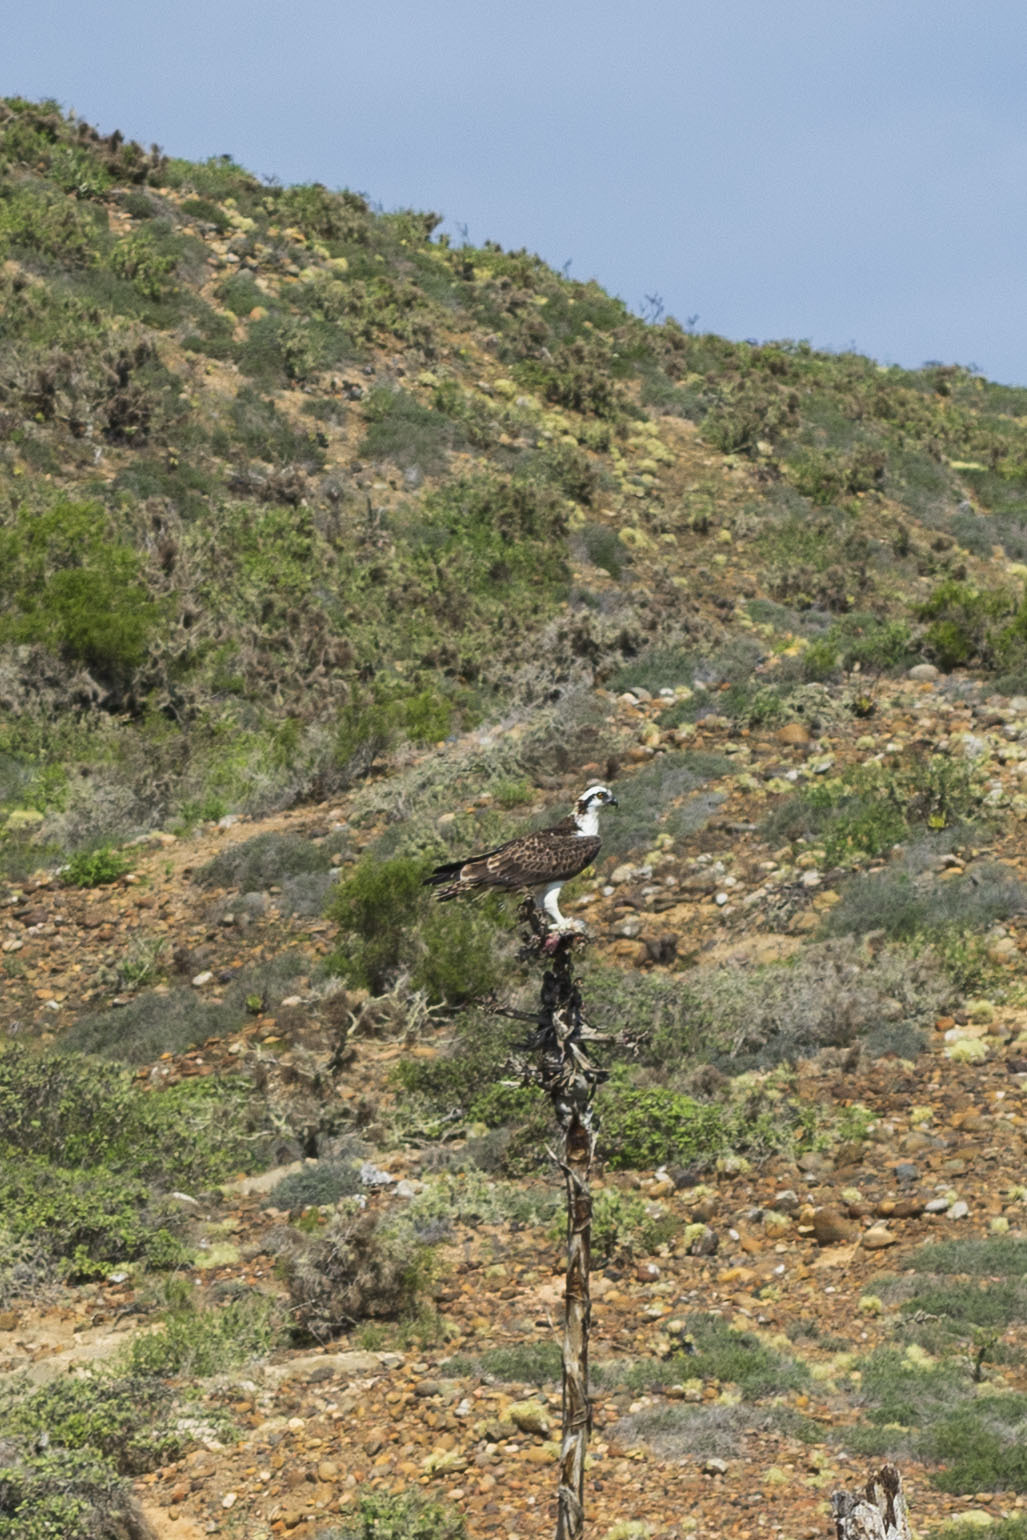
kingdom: Animalia
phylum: Chordata
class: Aves
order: Accipitriformes
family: Pandionidae
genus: Pandion
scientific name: Pandion haliaetus
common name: Osprey
